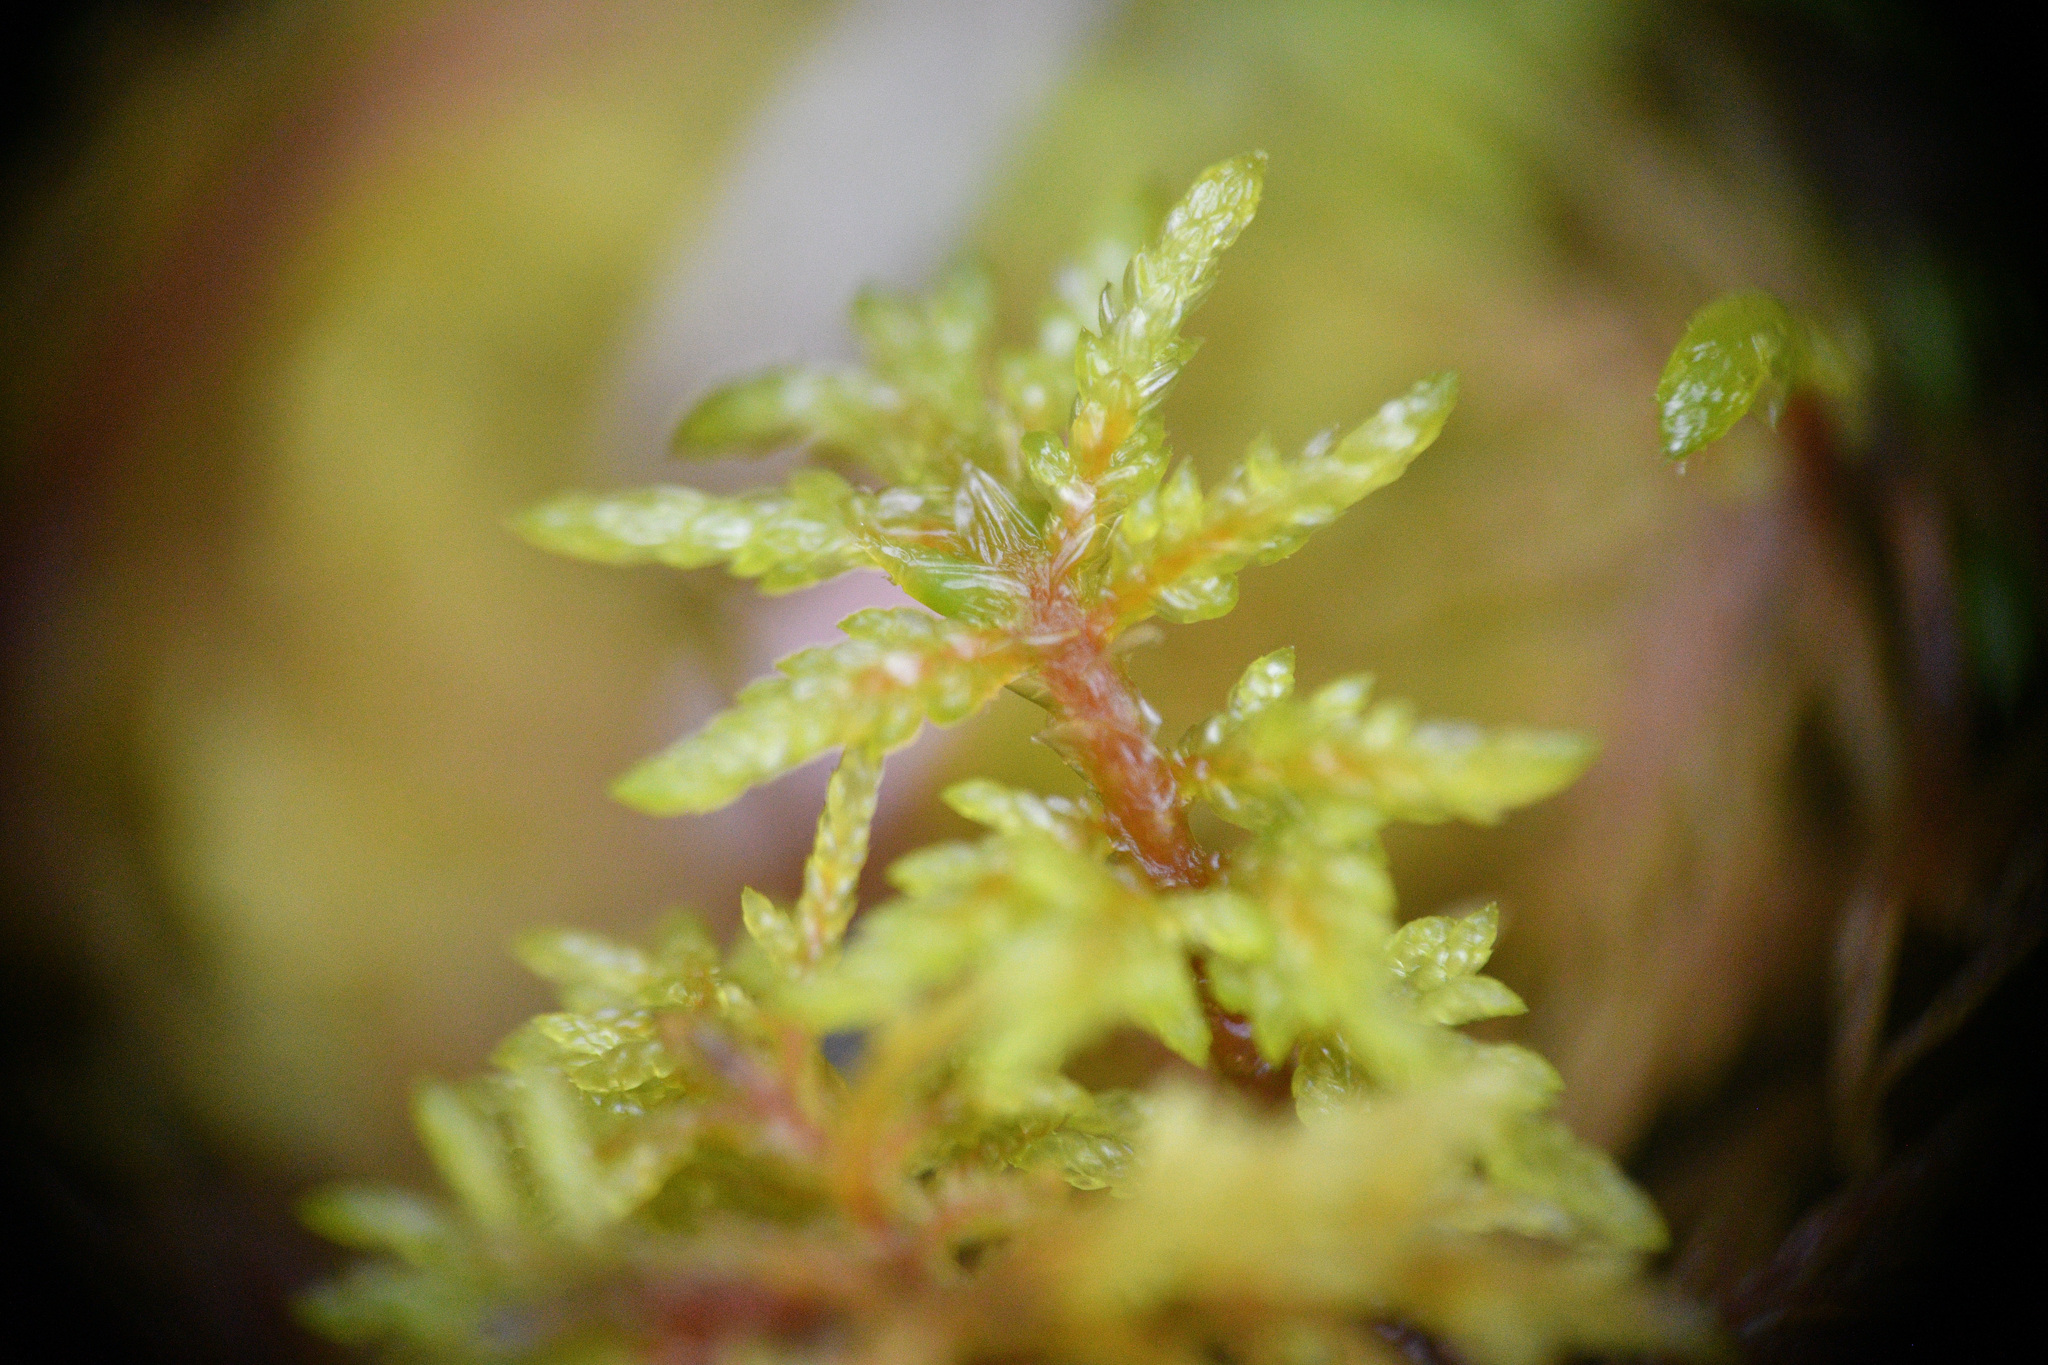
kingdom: Plantae
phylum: Bryophyta
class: Bryopsida
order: Hypnales
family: Hylocomiaceae
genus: Hylocomium
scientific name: Hylocomium splendens
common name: Stairstep moss
